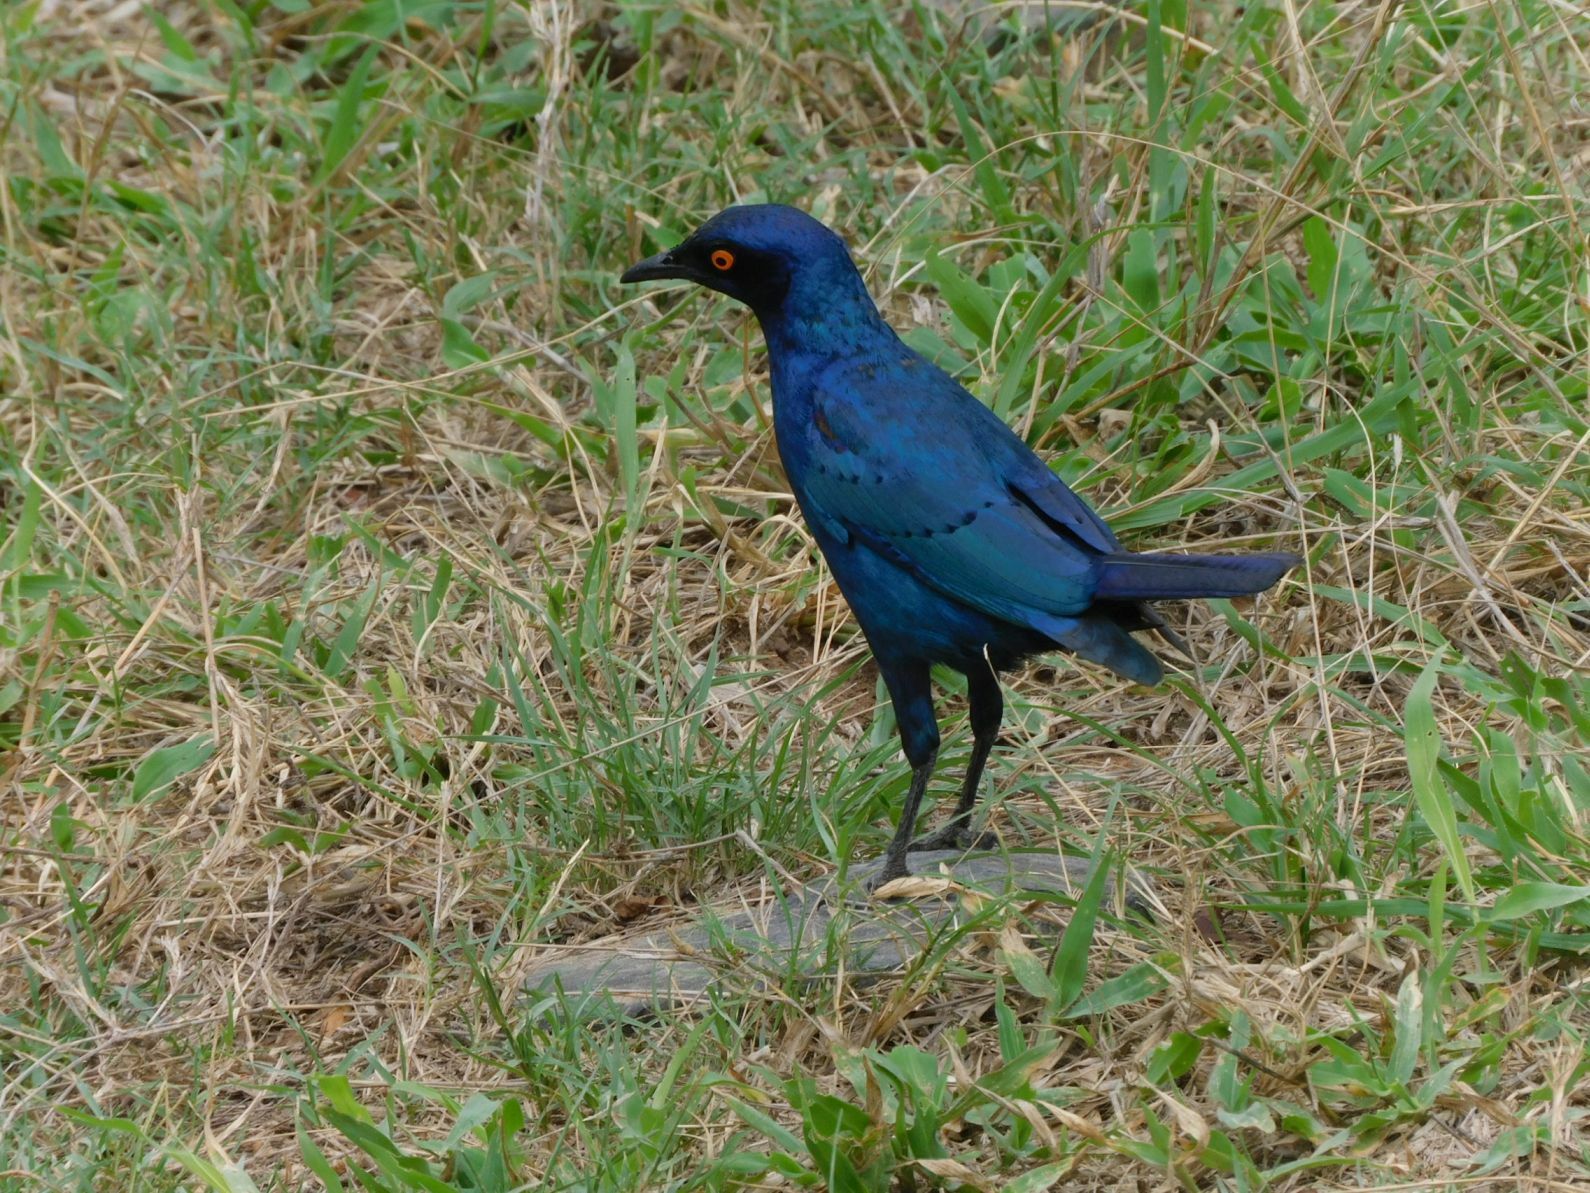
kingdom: Animalia
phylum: Chordata
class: Aves
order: Passeriformes
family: Sturnidae
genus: Lamprotornis
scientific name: Lamprotornis nitens
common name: Cape starling
